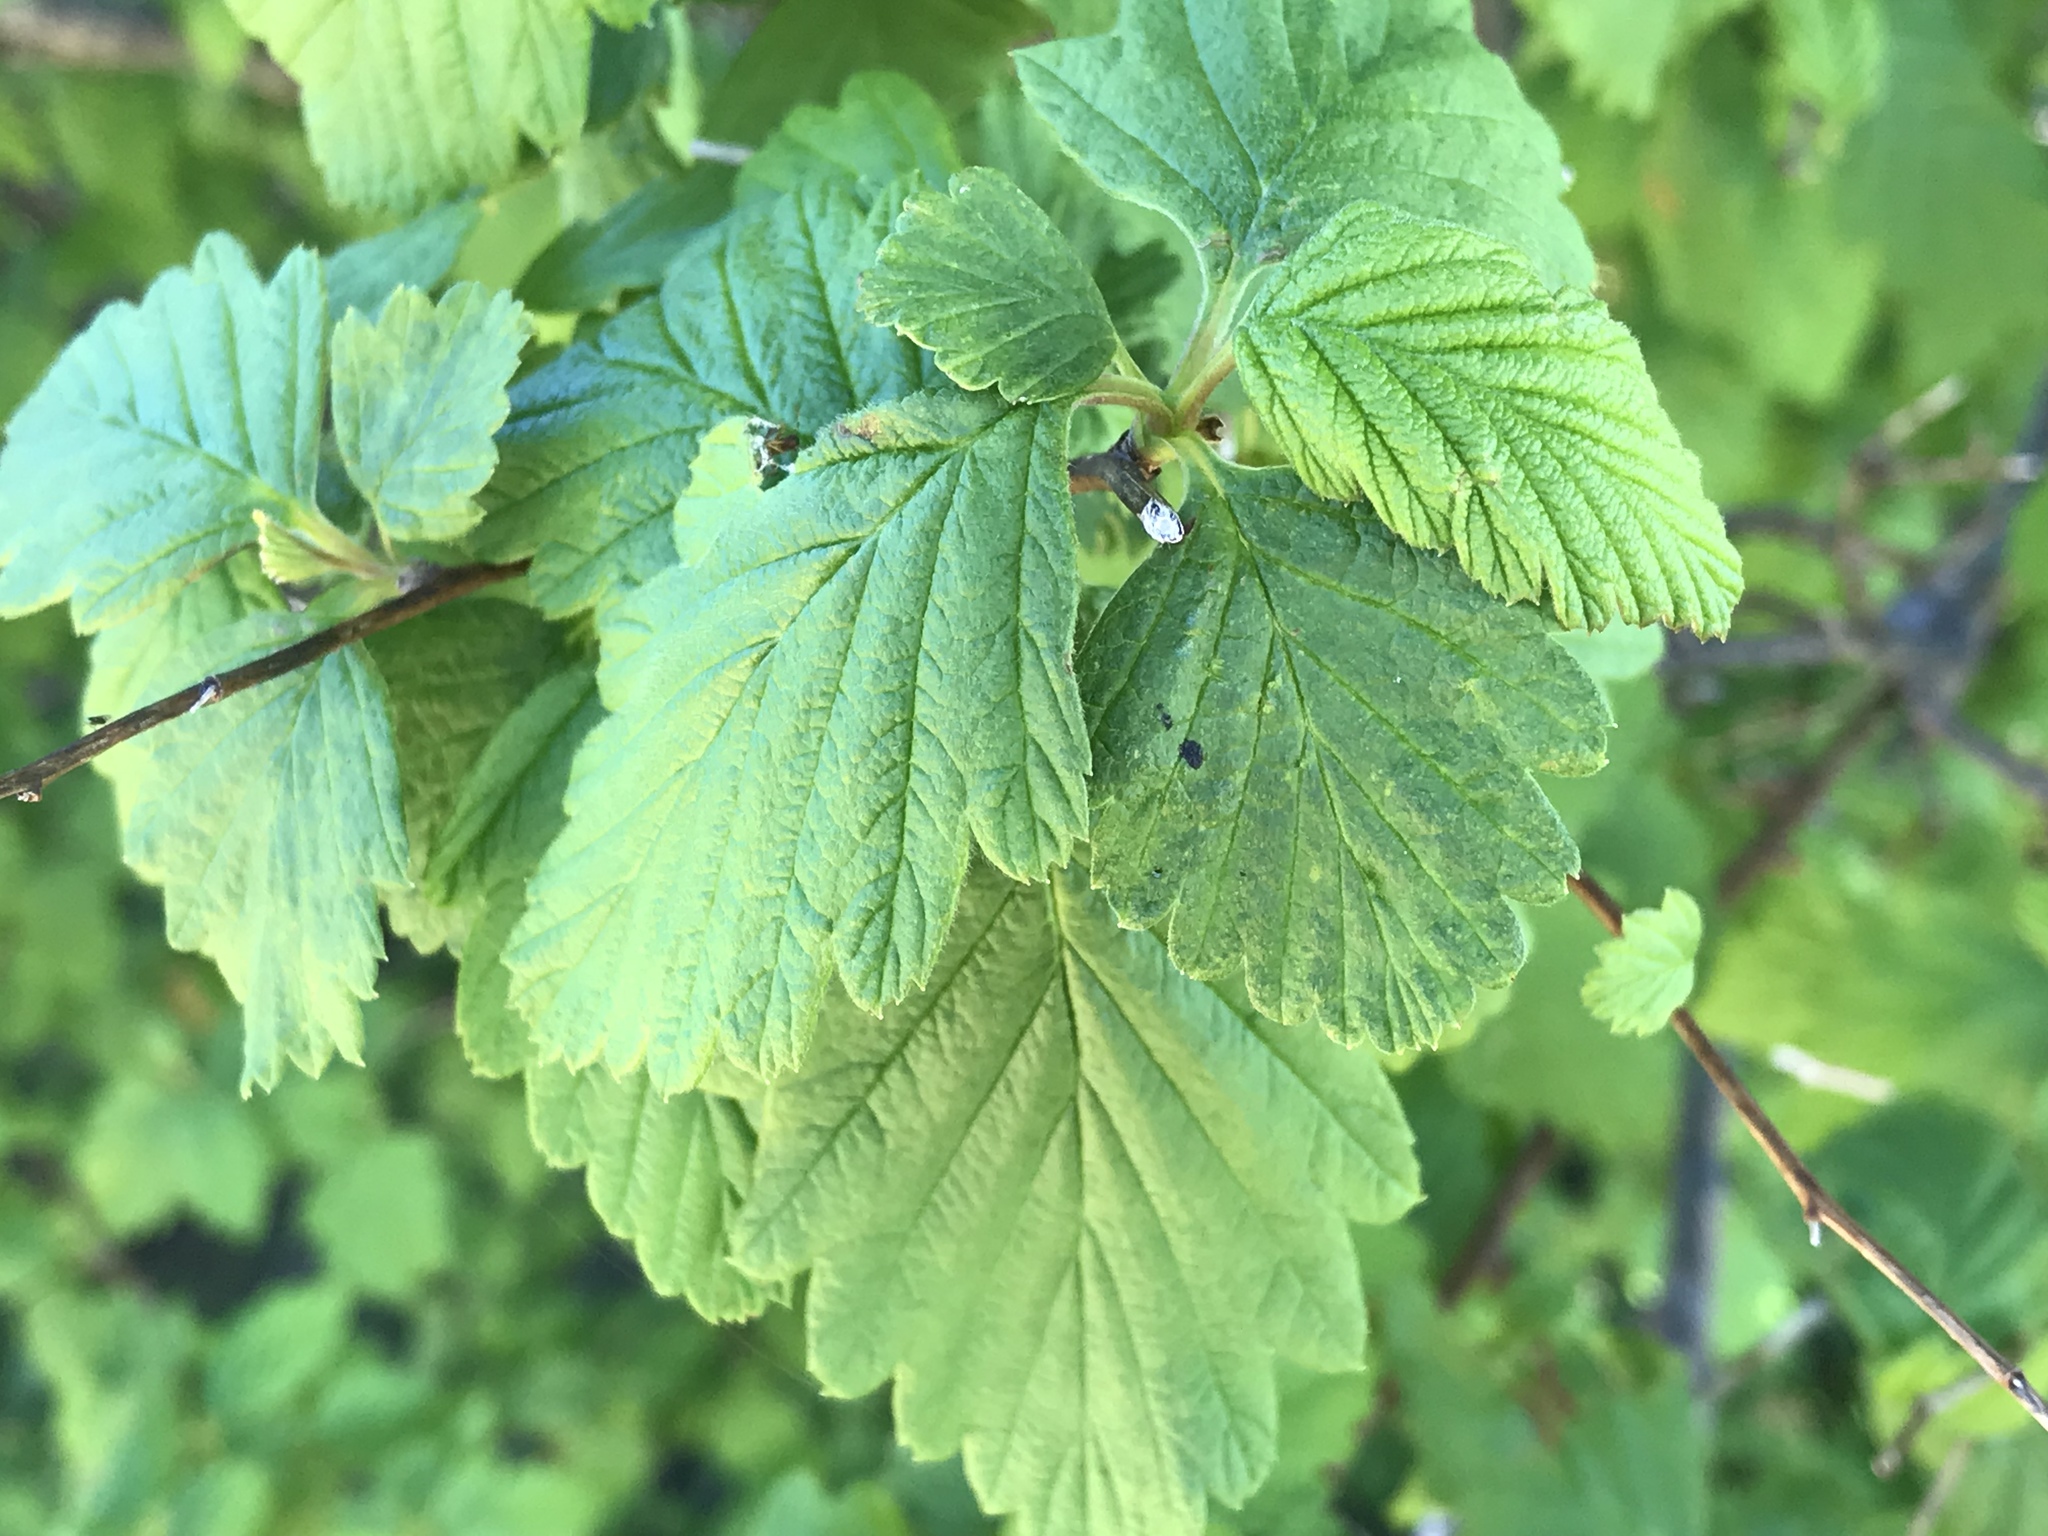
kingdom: Plantae
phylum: Tracheophyta
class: Magnoliopsida
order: Rosales
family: Rosaceae
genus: Holodiscus
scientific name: Holodiscus discolor
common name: Oceanspray
